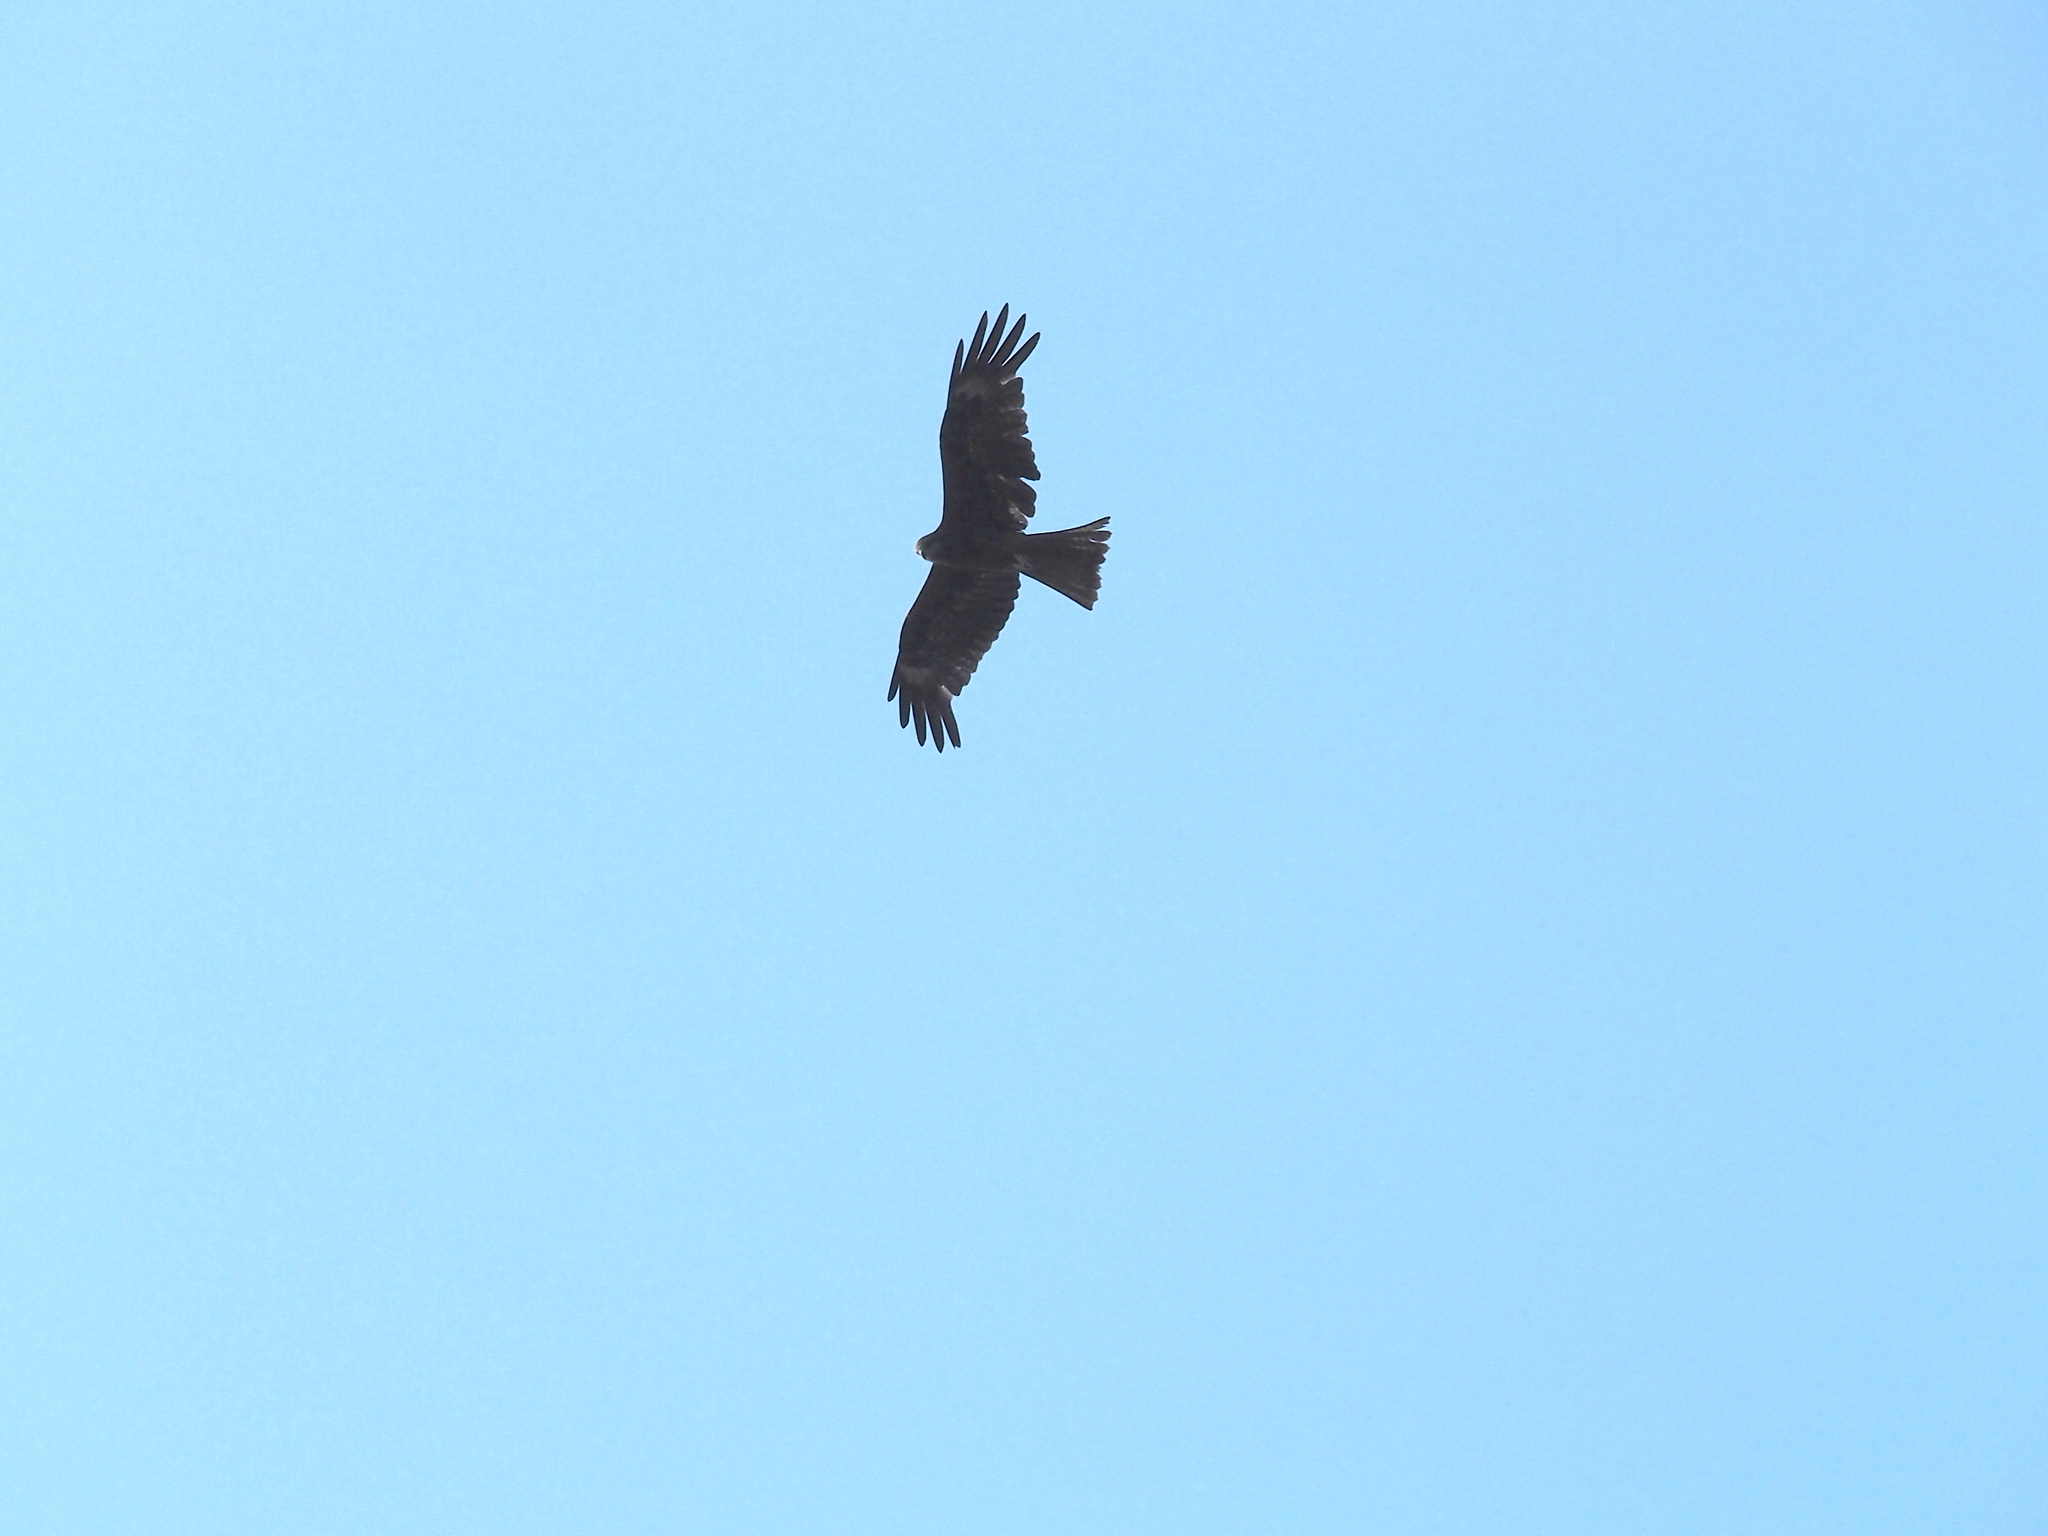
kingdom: Animalia
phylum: Chordata
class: Aves
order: Accipitriformes
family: Accipitridae
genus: Milvus
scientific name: Milvus migrans
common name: Black kite
